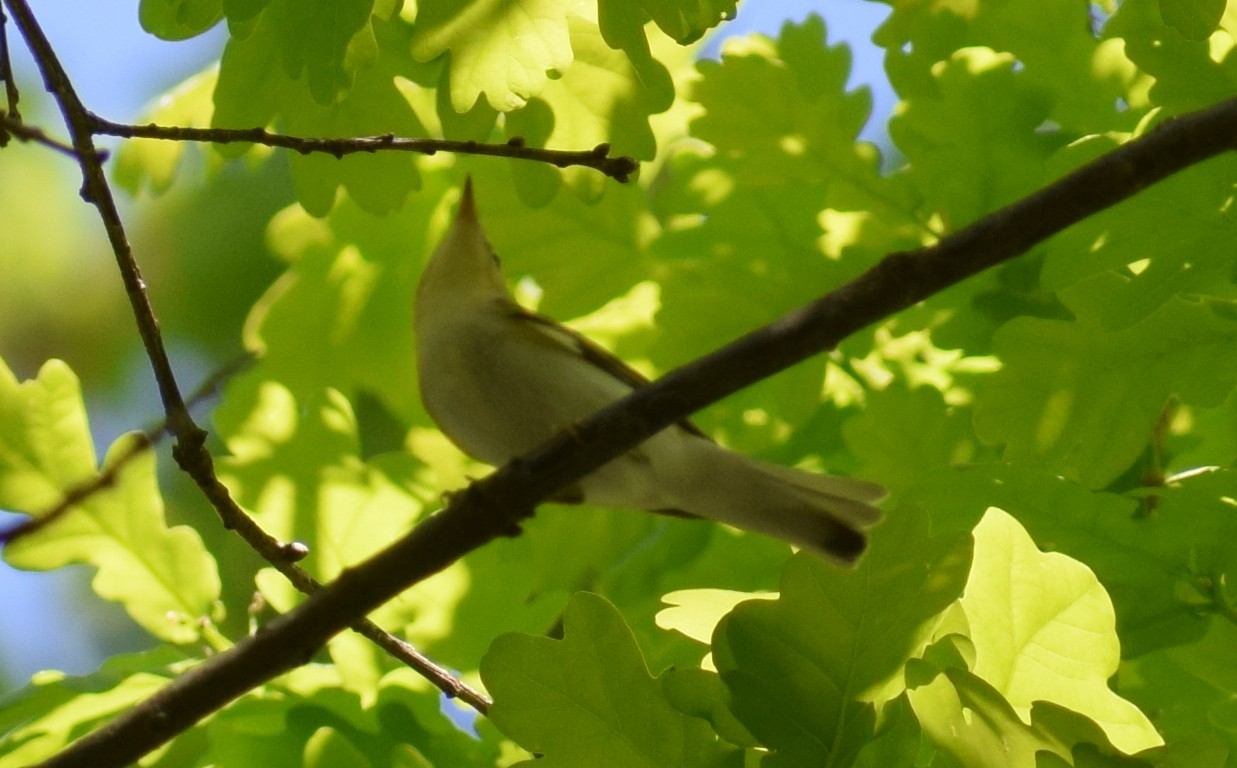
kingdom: Animalia
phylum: Chordata
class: Aves
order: Passeriformes
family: Acrocephalidae
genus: Hippolais
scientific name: Hippolais icterina
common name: Icterine warbler
